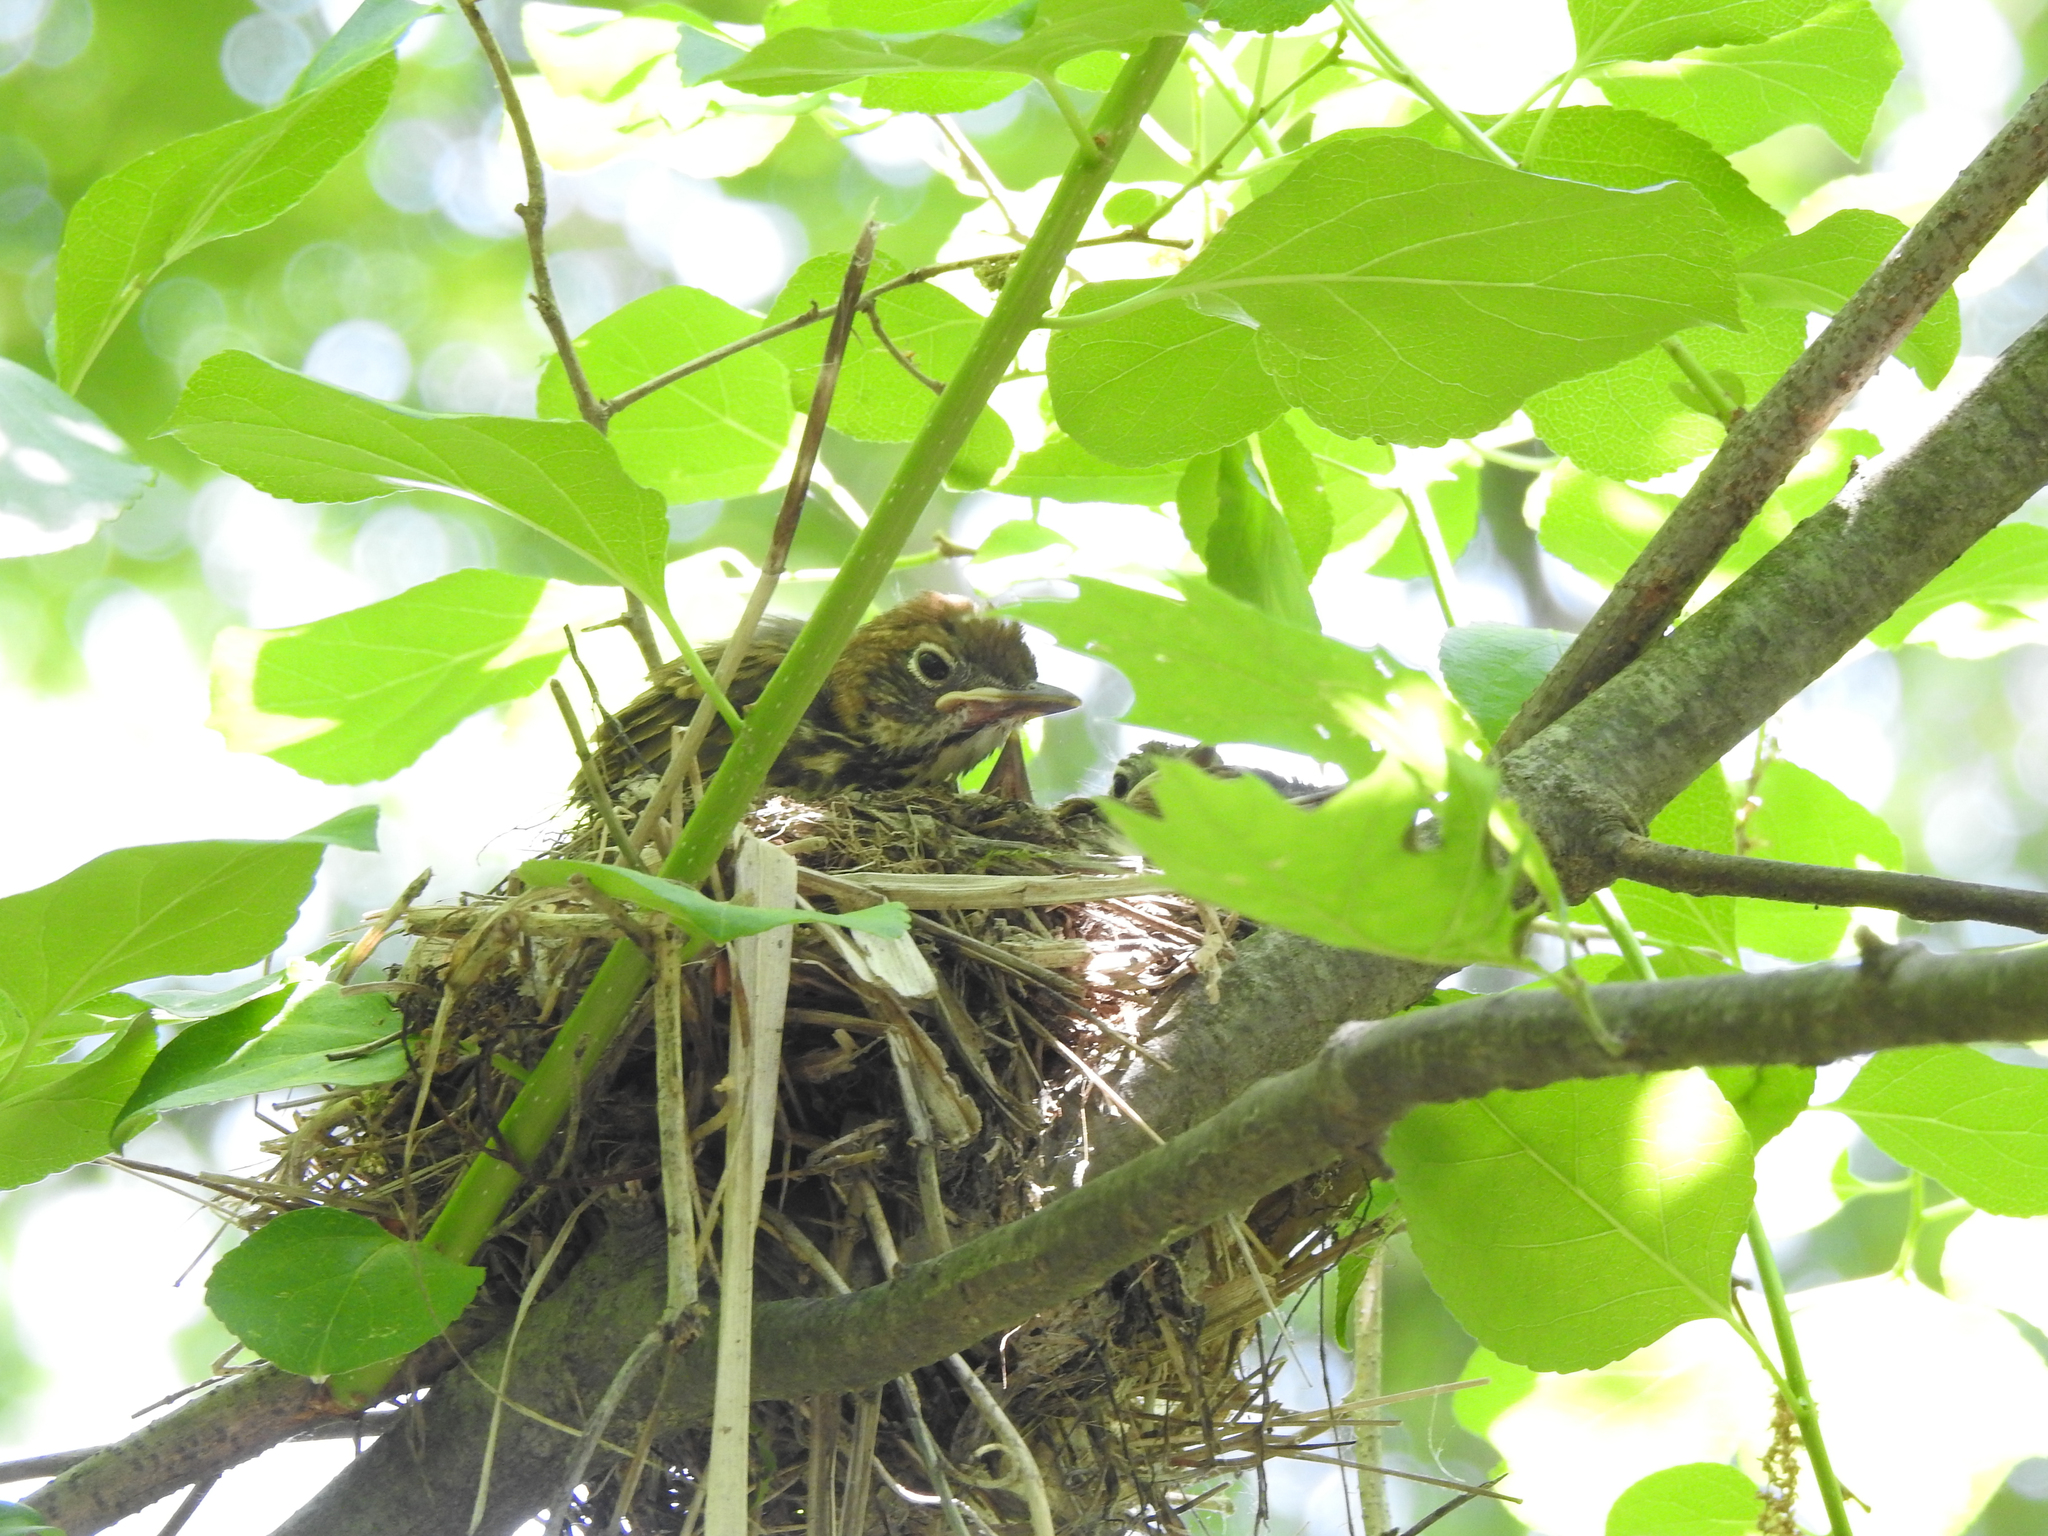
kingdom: Animalia
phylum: Chordata
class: Aves
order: Passeriformes
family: Turdidae
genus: Hylocichla
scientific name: Hylocichla mustelina
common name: Wood thrush
